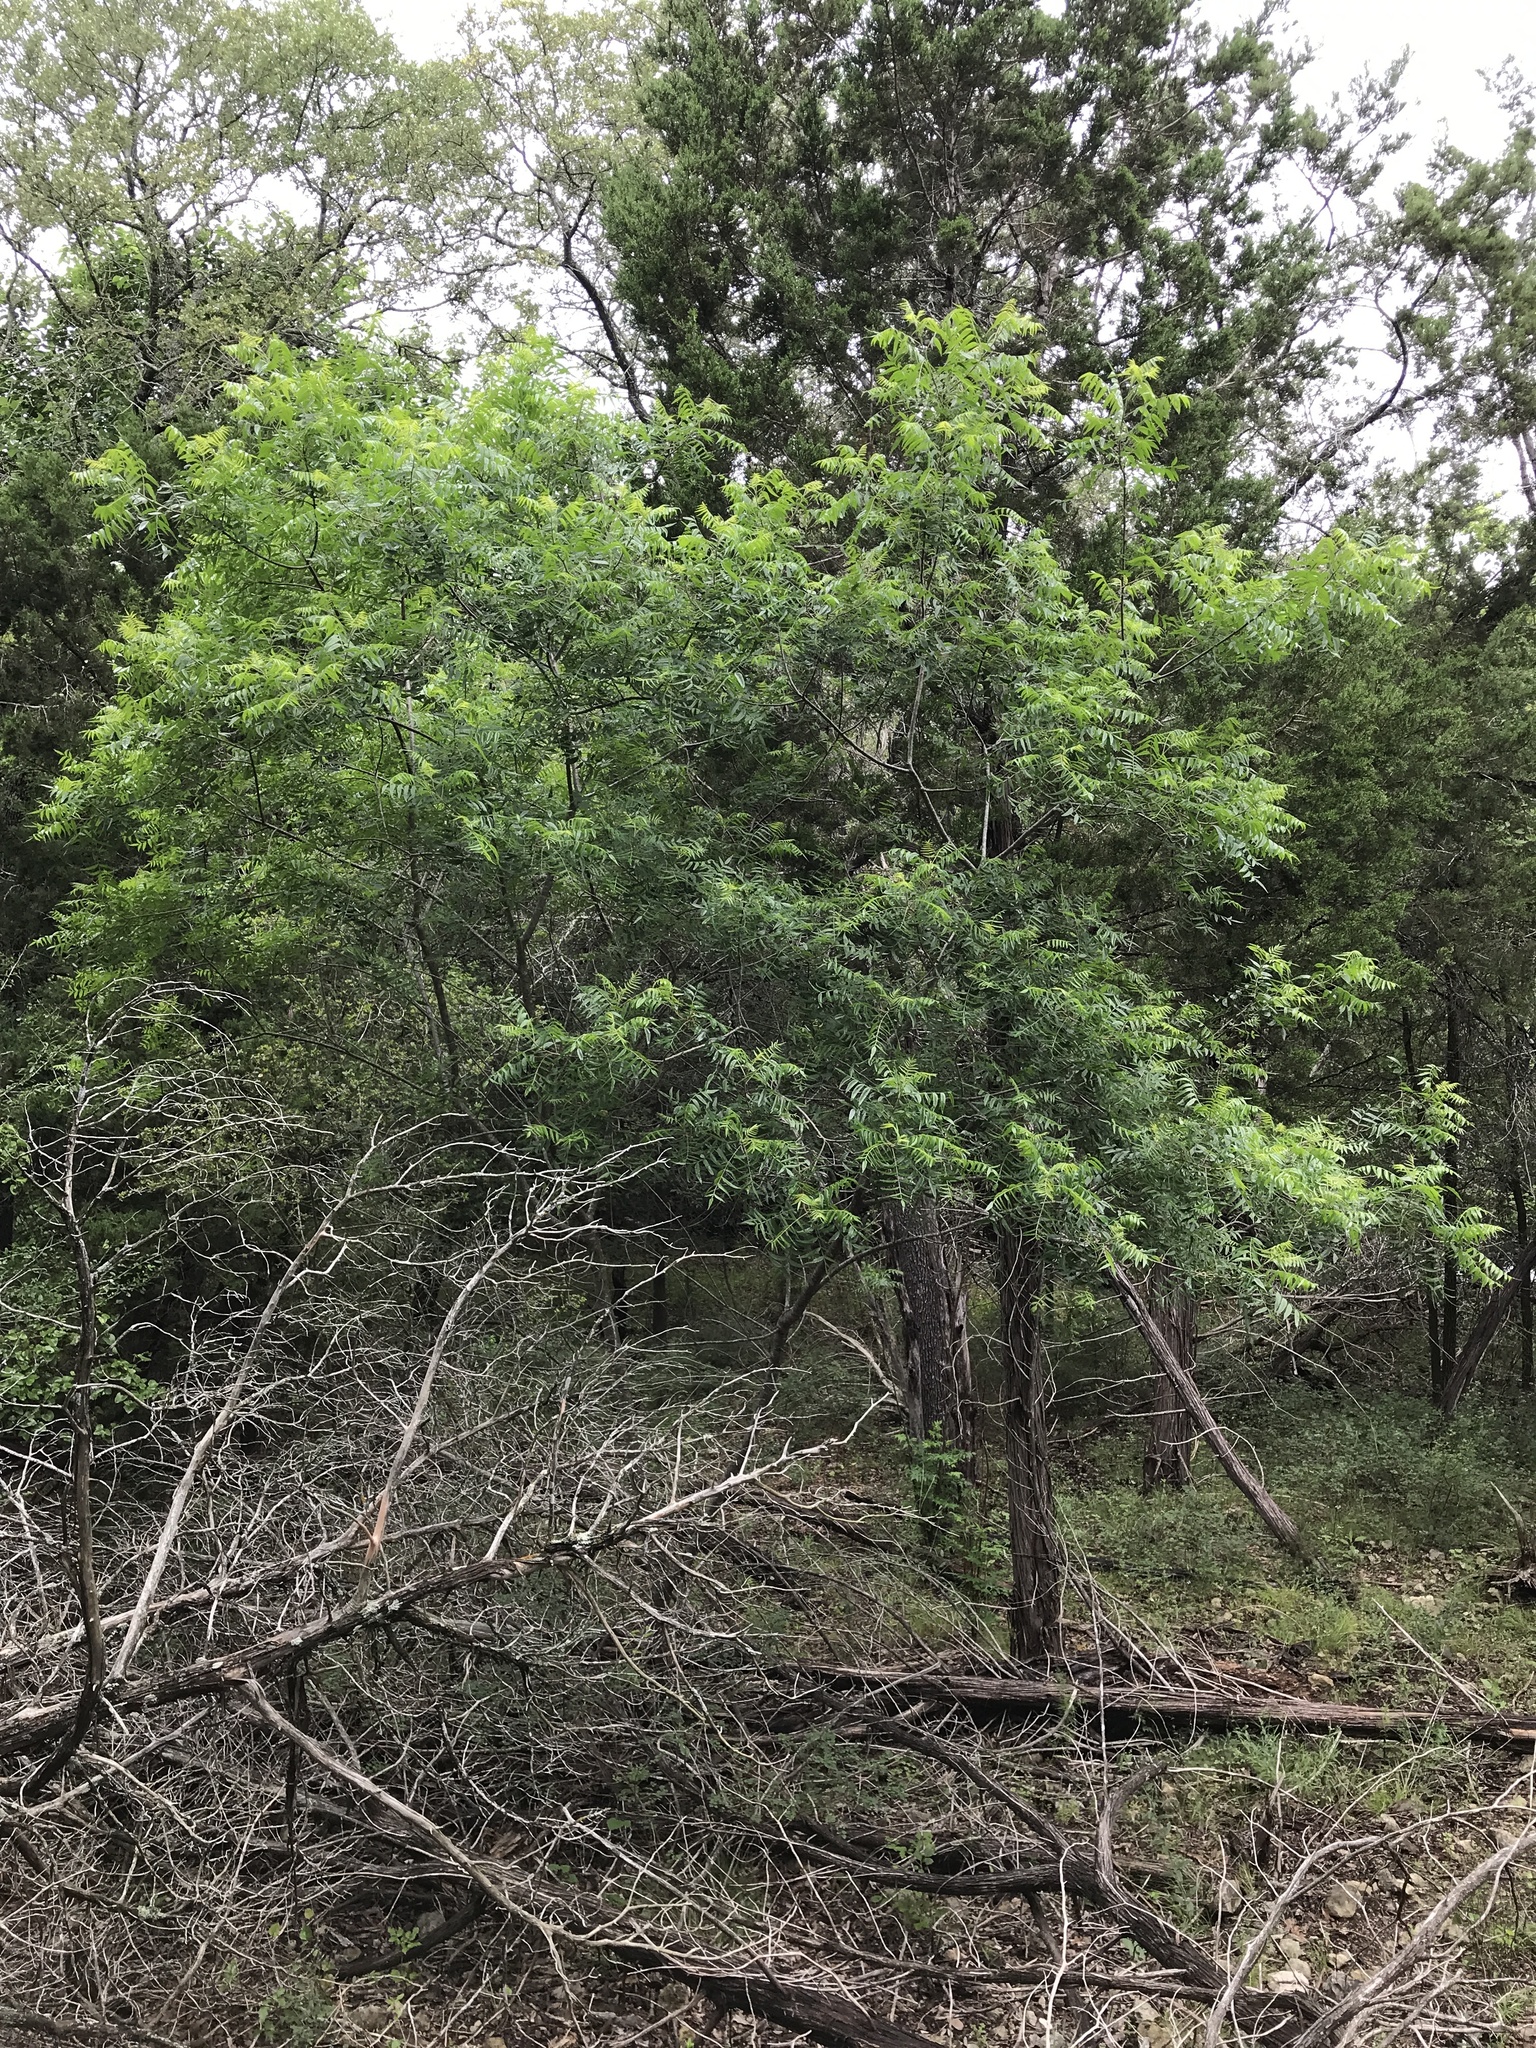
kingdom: Plantae
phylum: Tracheophyta
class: Magnoliopsida
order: Sapindales
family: Anacardiaceae
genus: Rhus
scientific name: Rhus lanceolata
